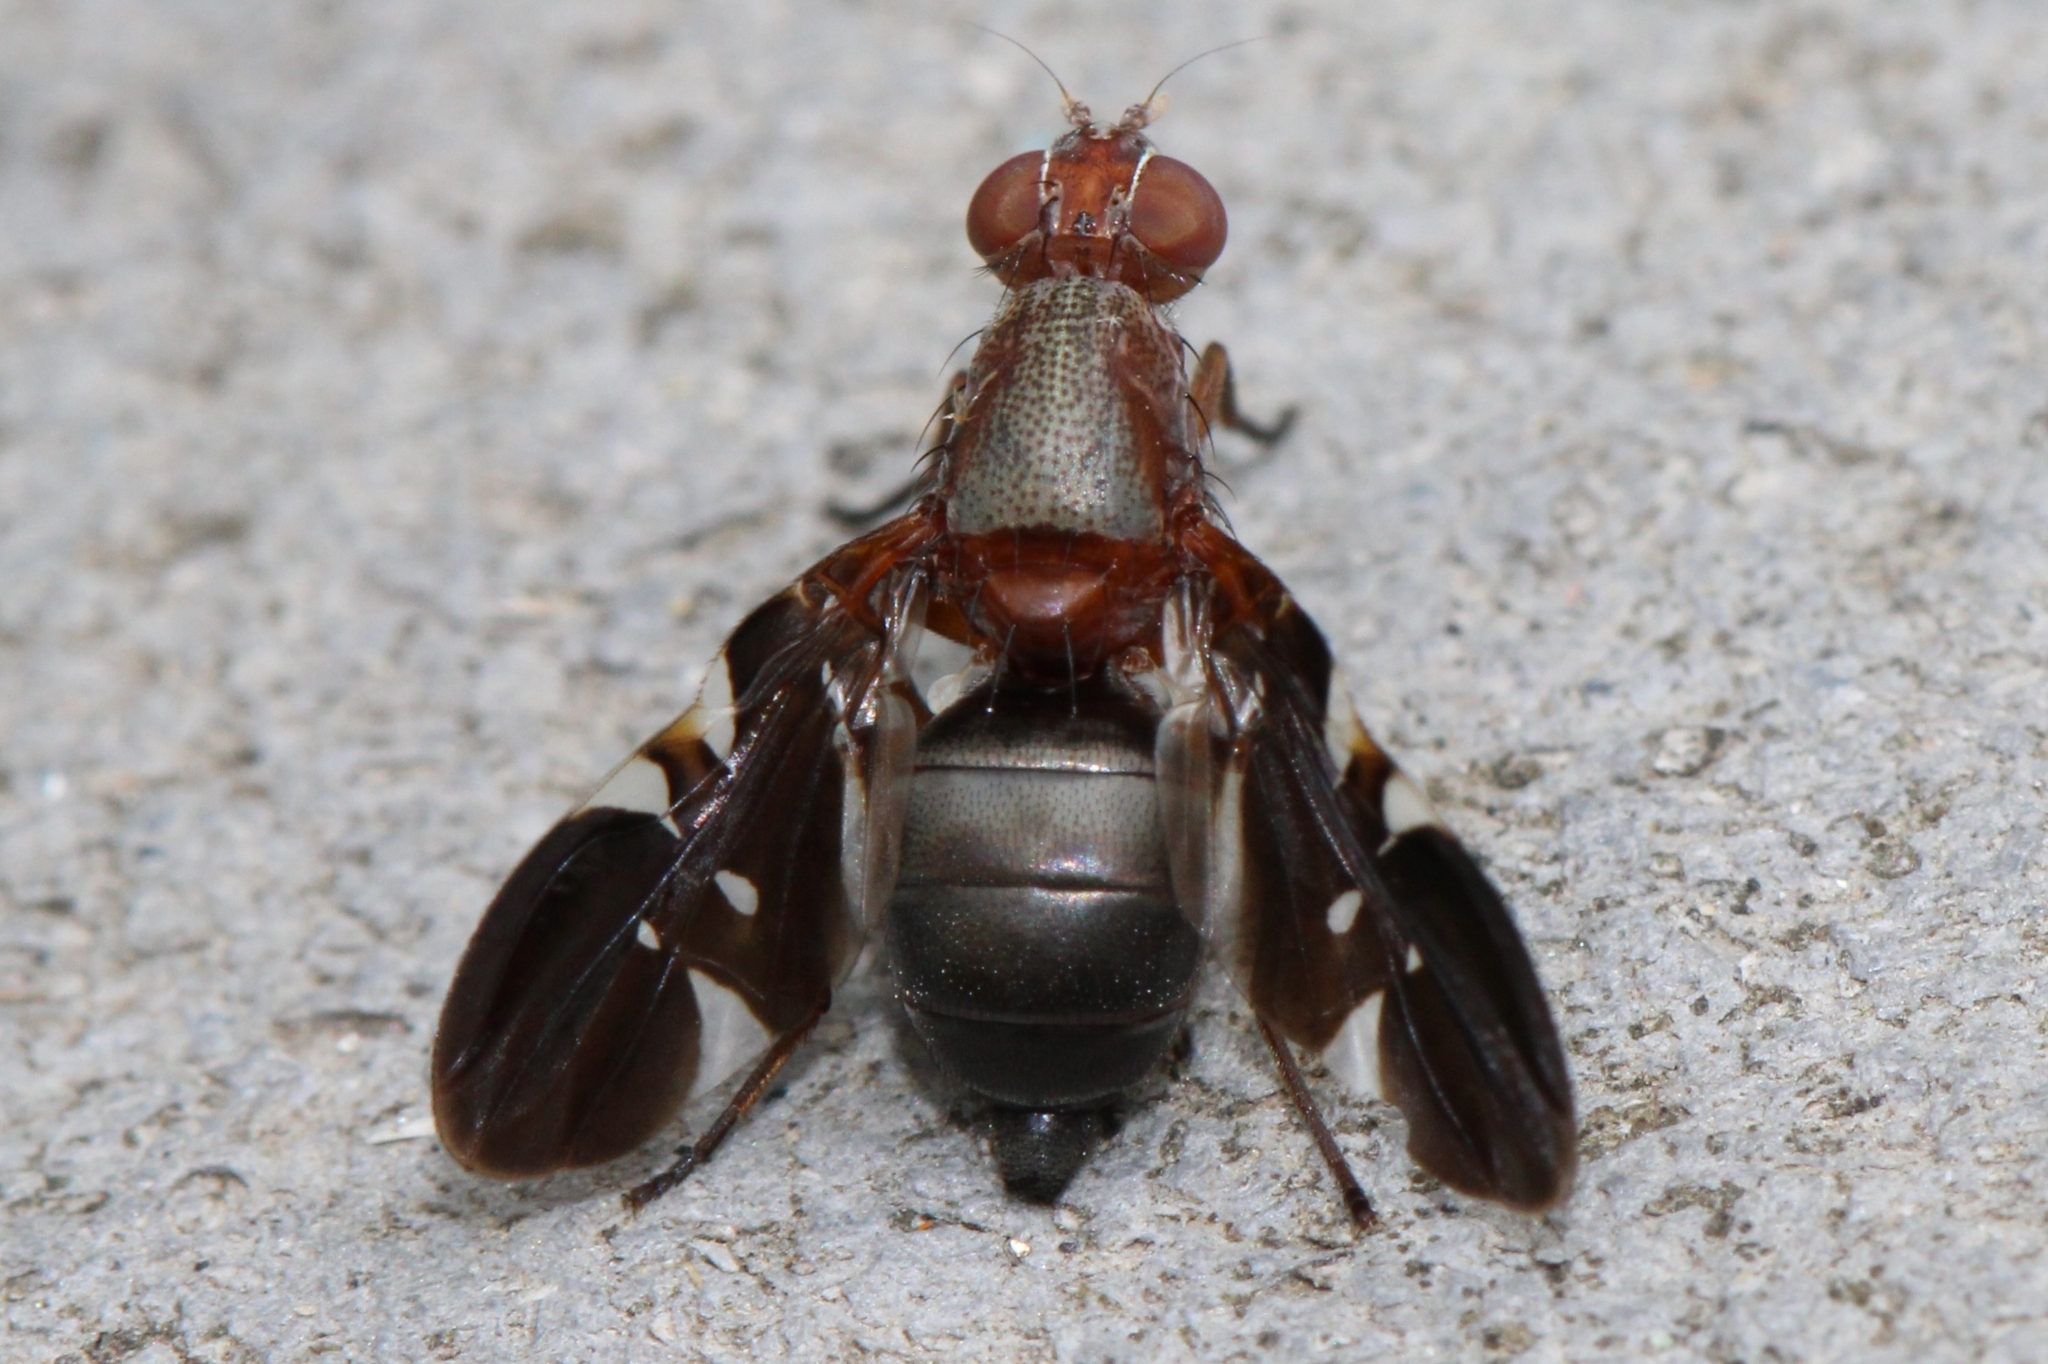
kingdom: Animalia
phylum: Arthropoda
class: Insecta
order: Diptera
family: Ulidiidae
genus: Delphinia
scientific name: Delphinia picta
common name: Common picture-winged fly
